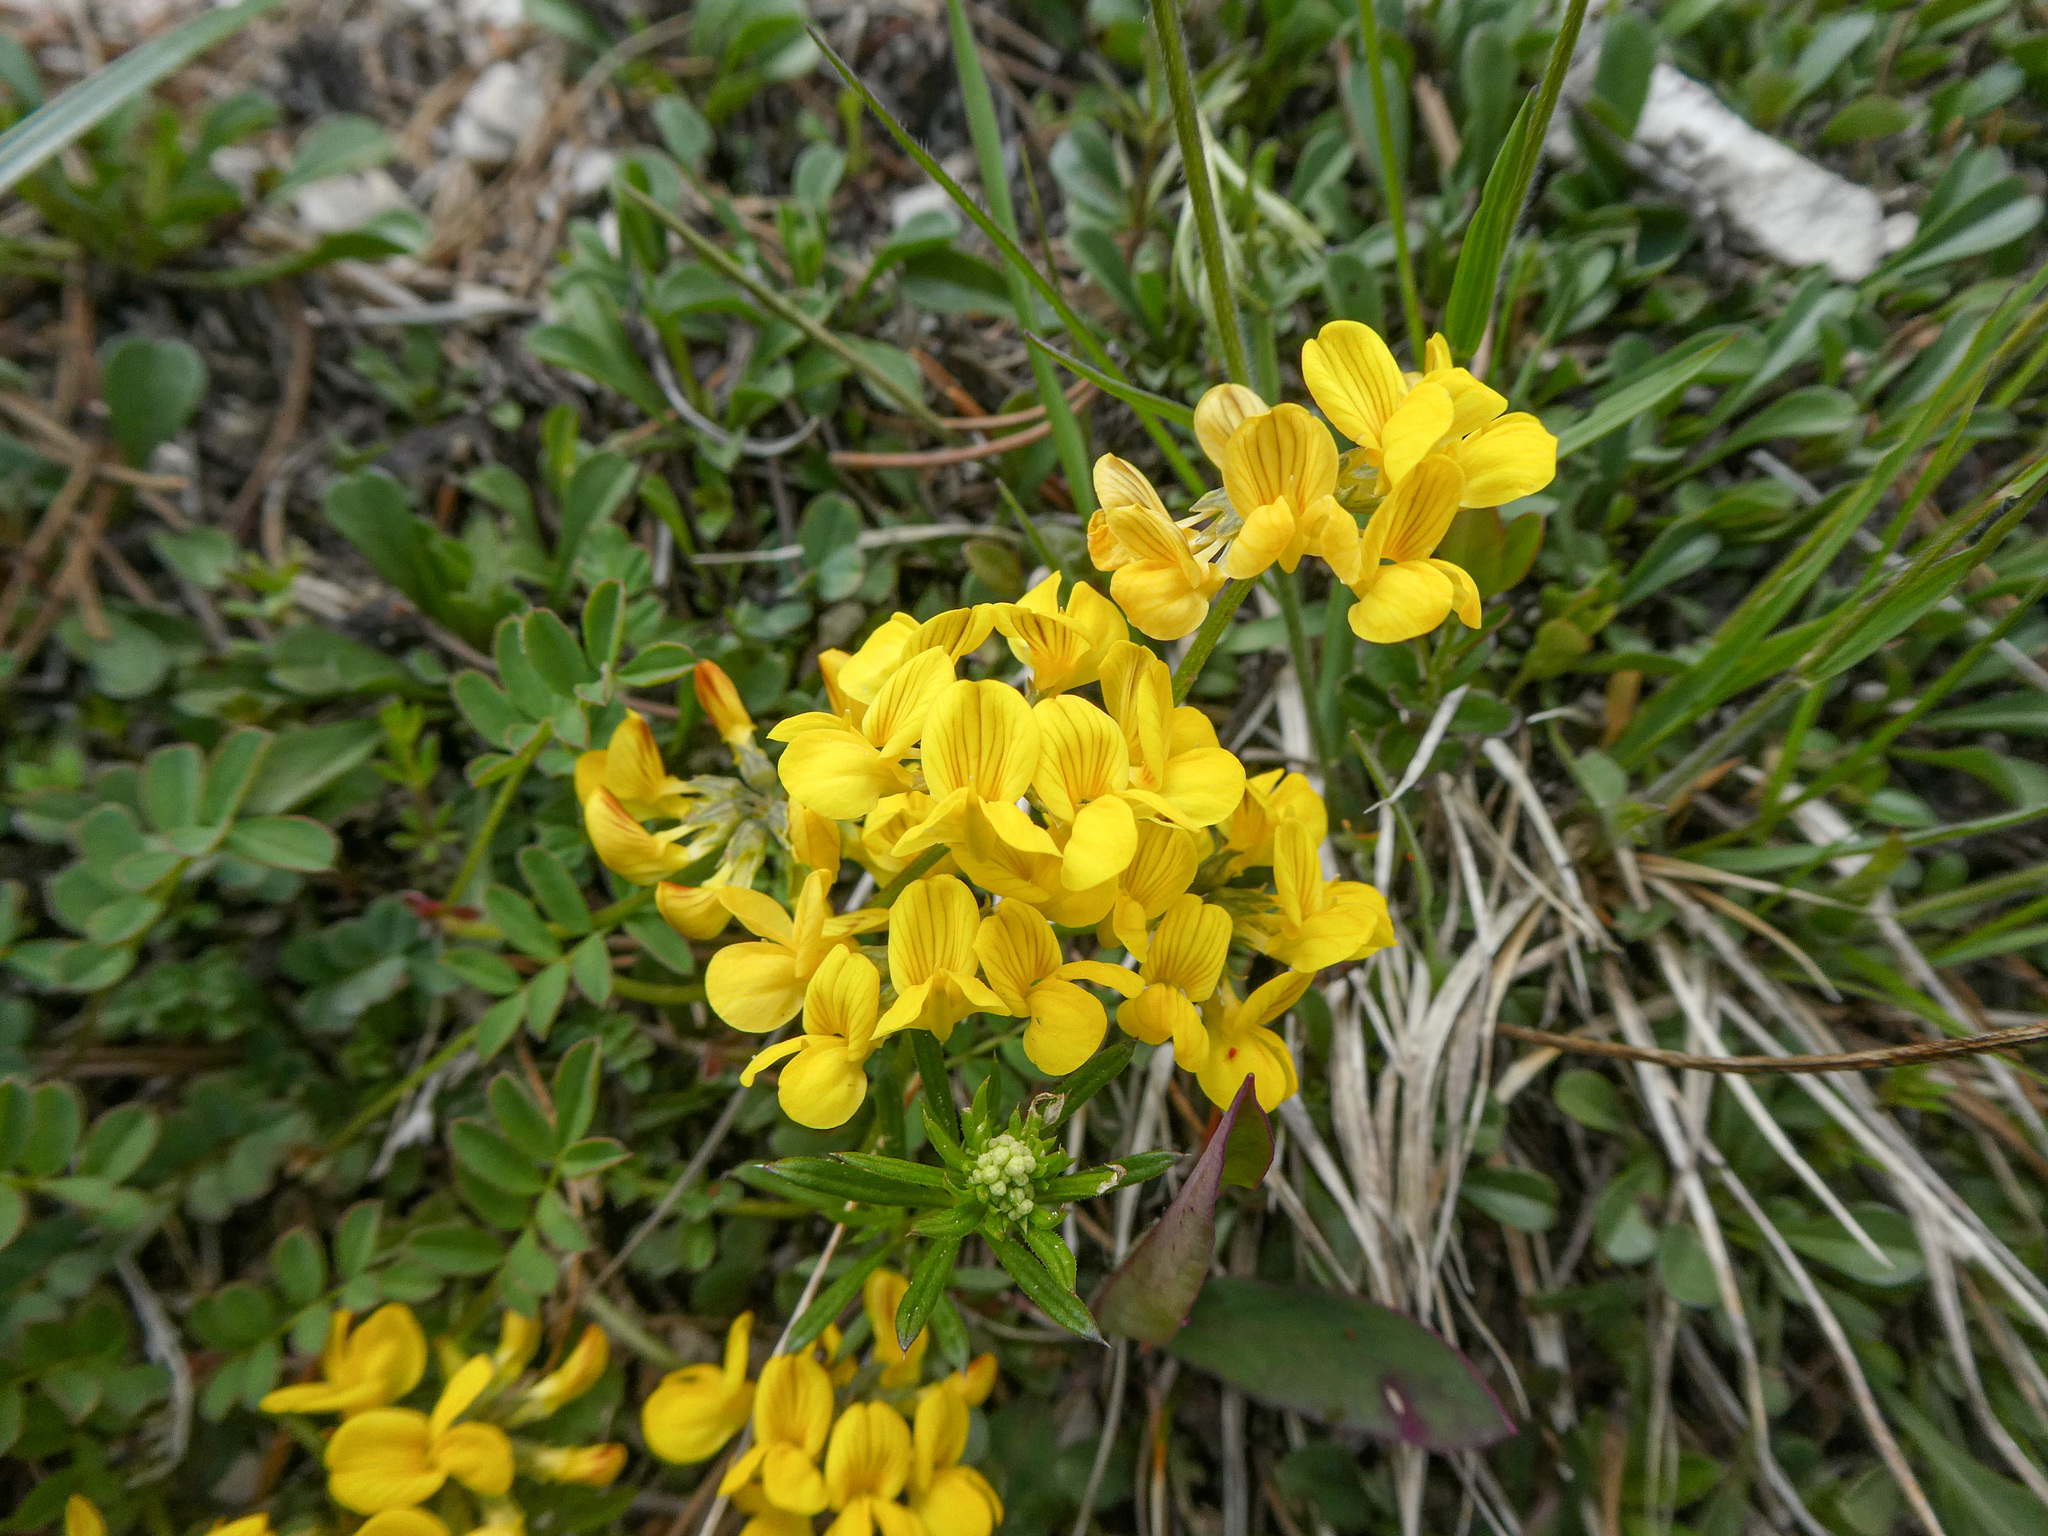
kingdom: Plantae
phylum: Tracheophyta
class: Magnoliopsida
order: Fabales
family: Fabaceae
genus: Hippocrepis
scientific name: Hippocrepis comosa
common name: Horseshoe vetch
